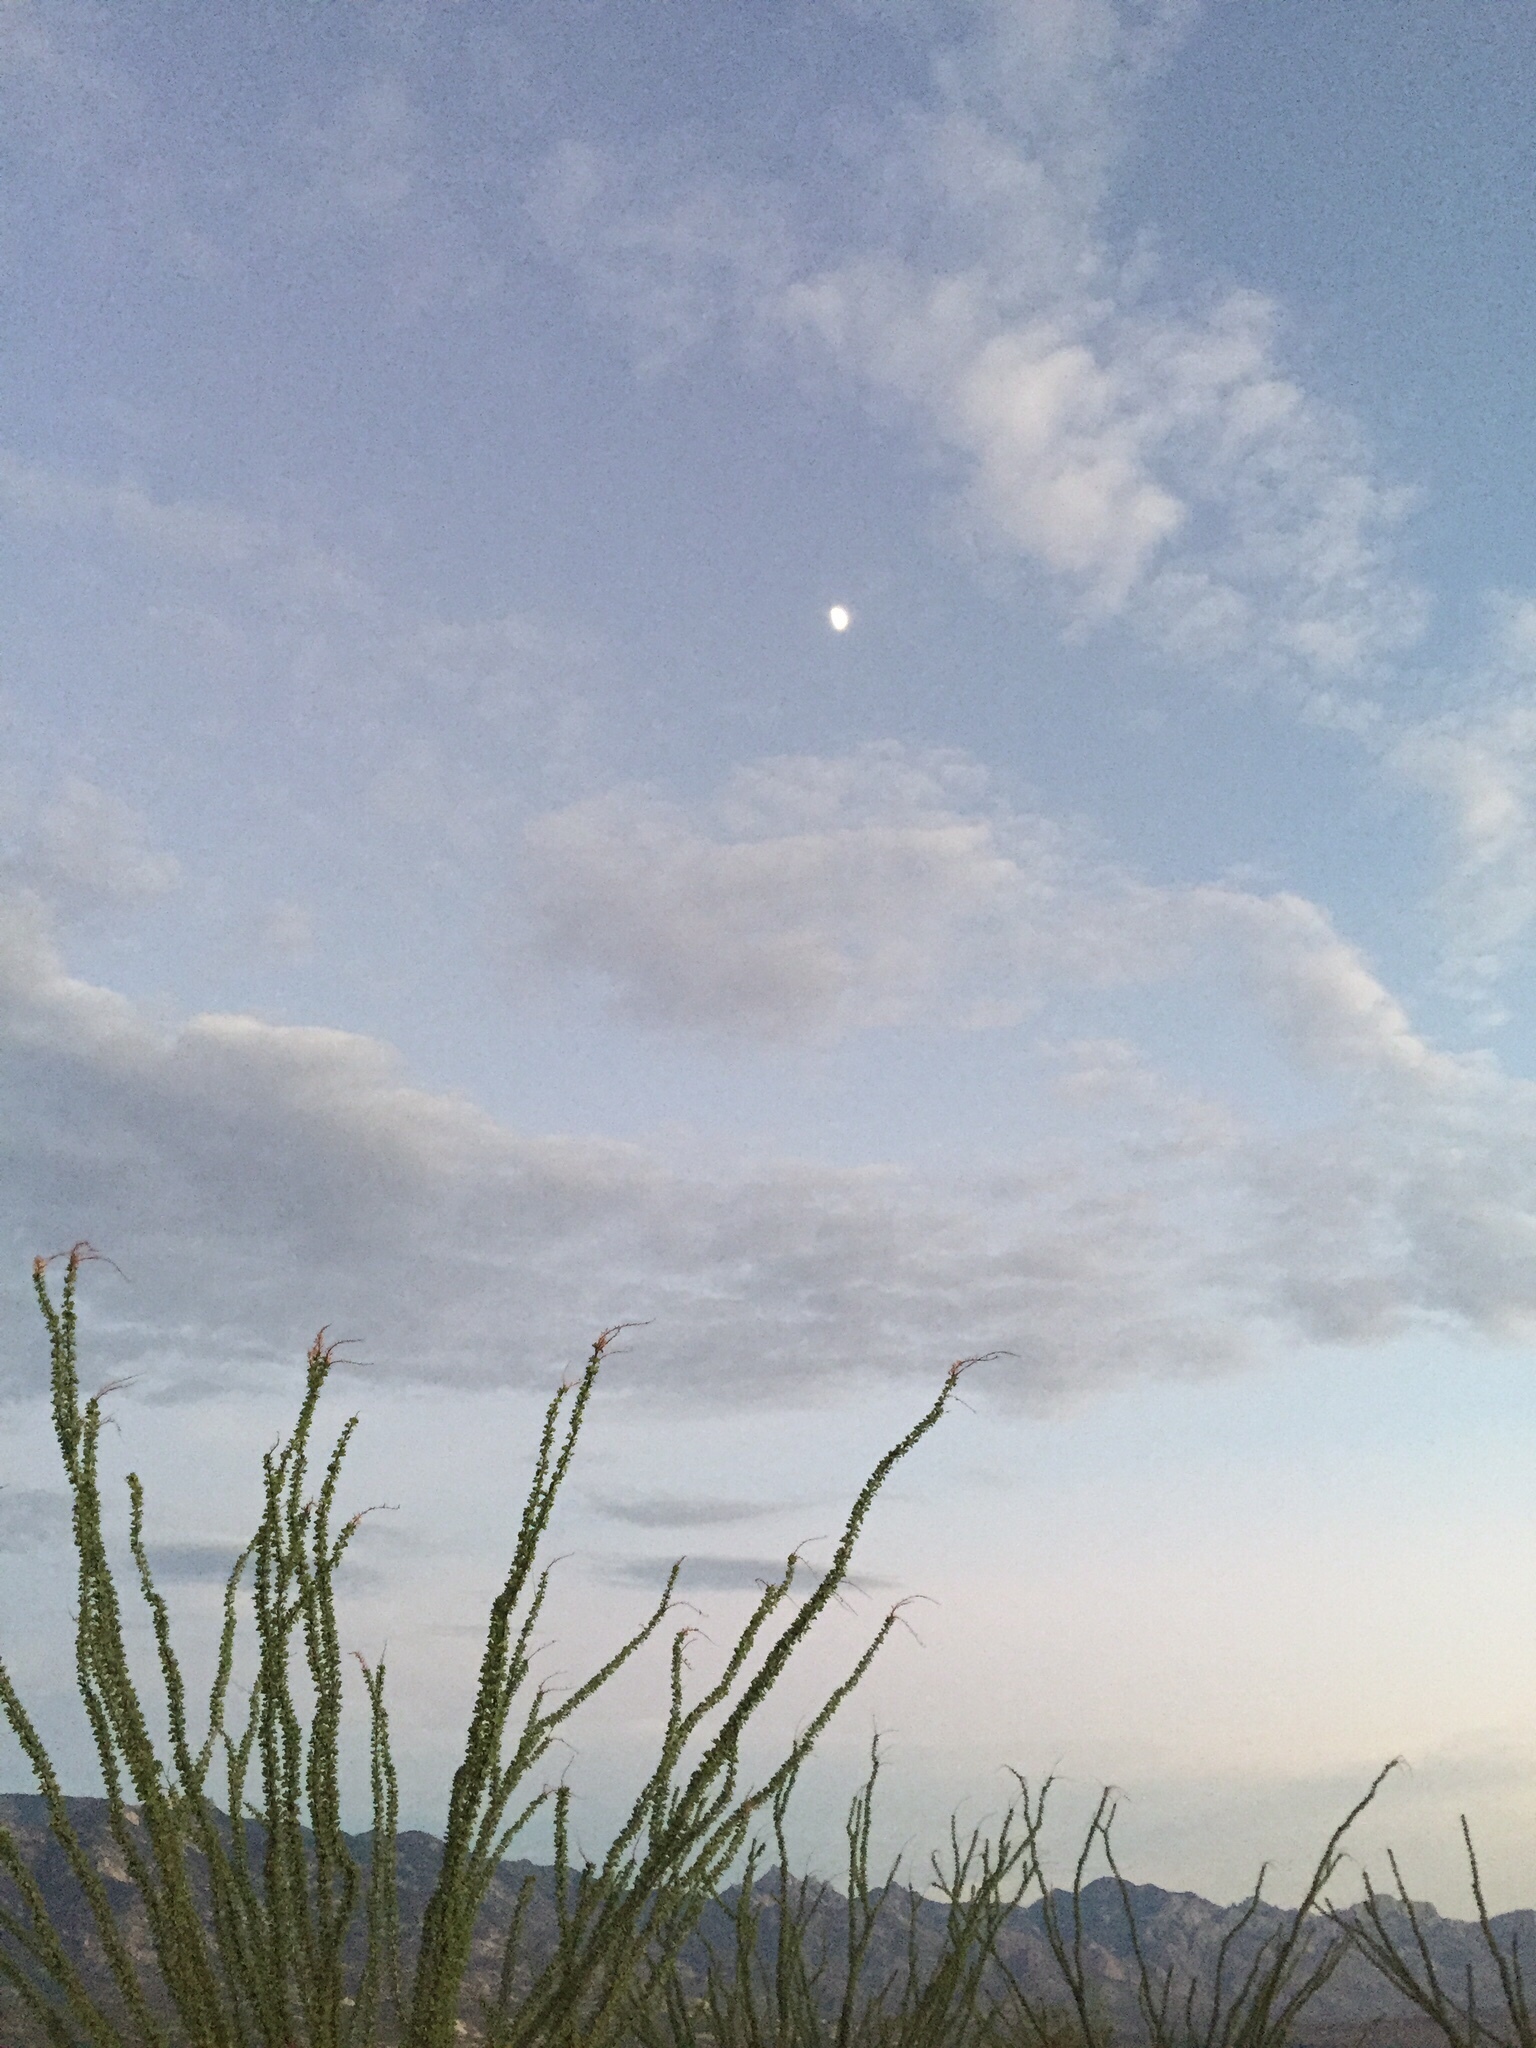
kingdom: Plantae
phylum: Tracheophyta
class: Magnoliopsida
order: Ericales
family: Fouquieriaceae
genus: Fouquieria
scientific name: Fouquieria splendens
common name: Vine-cactus
